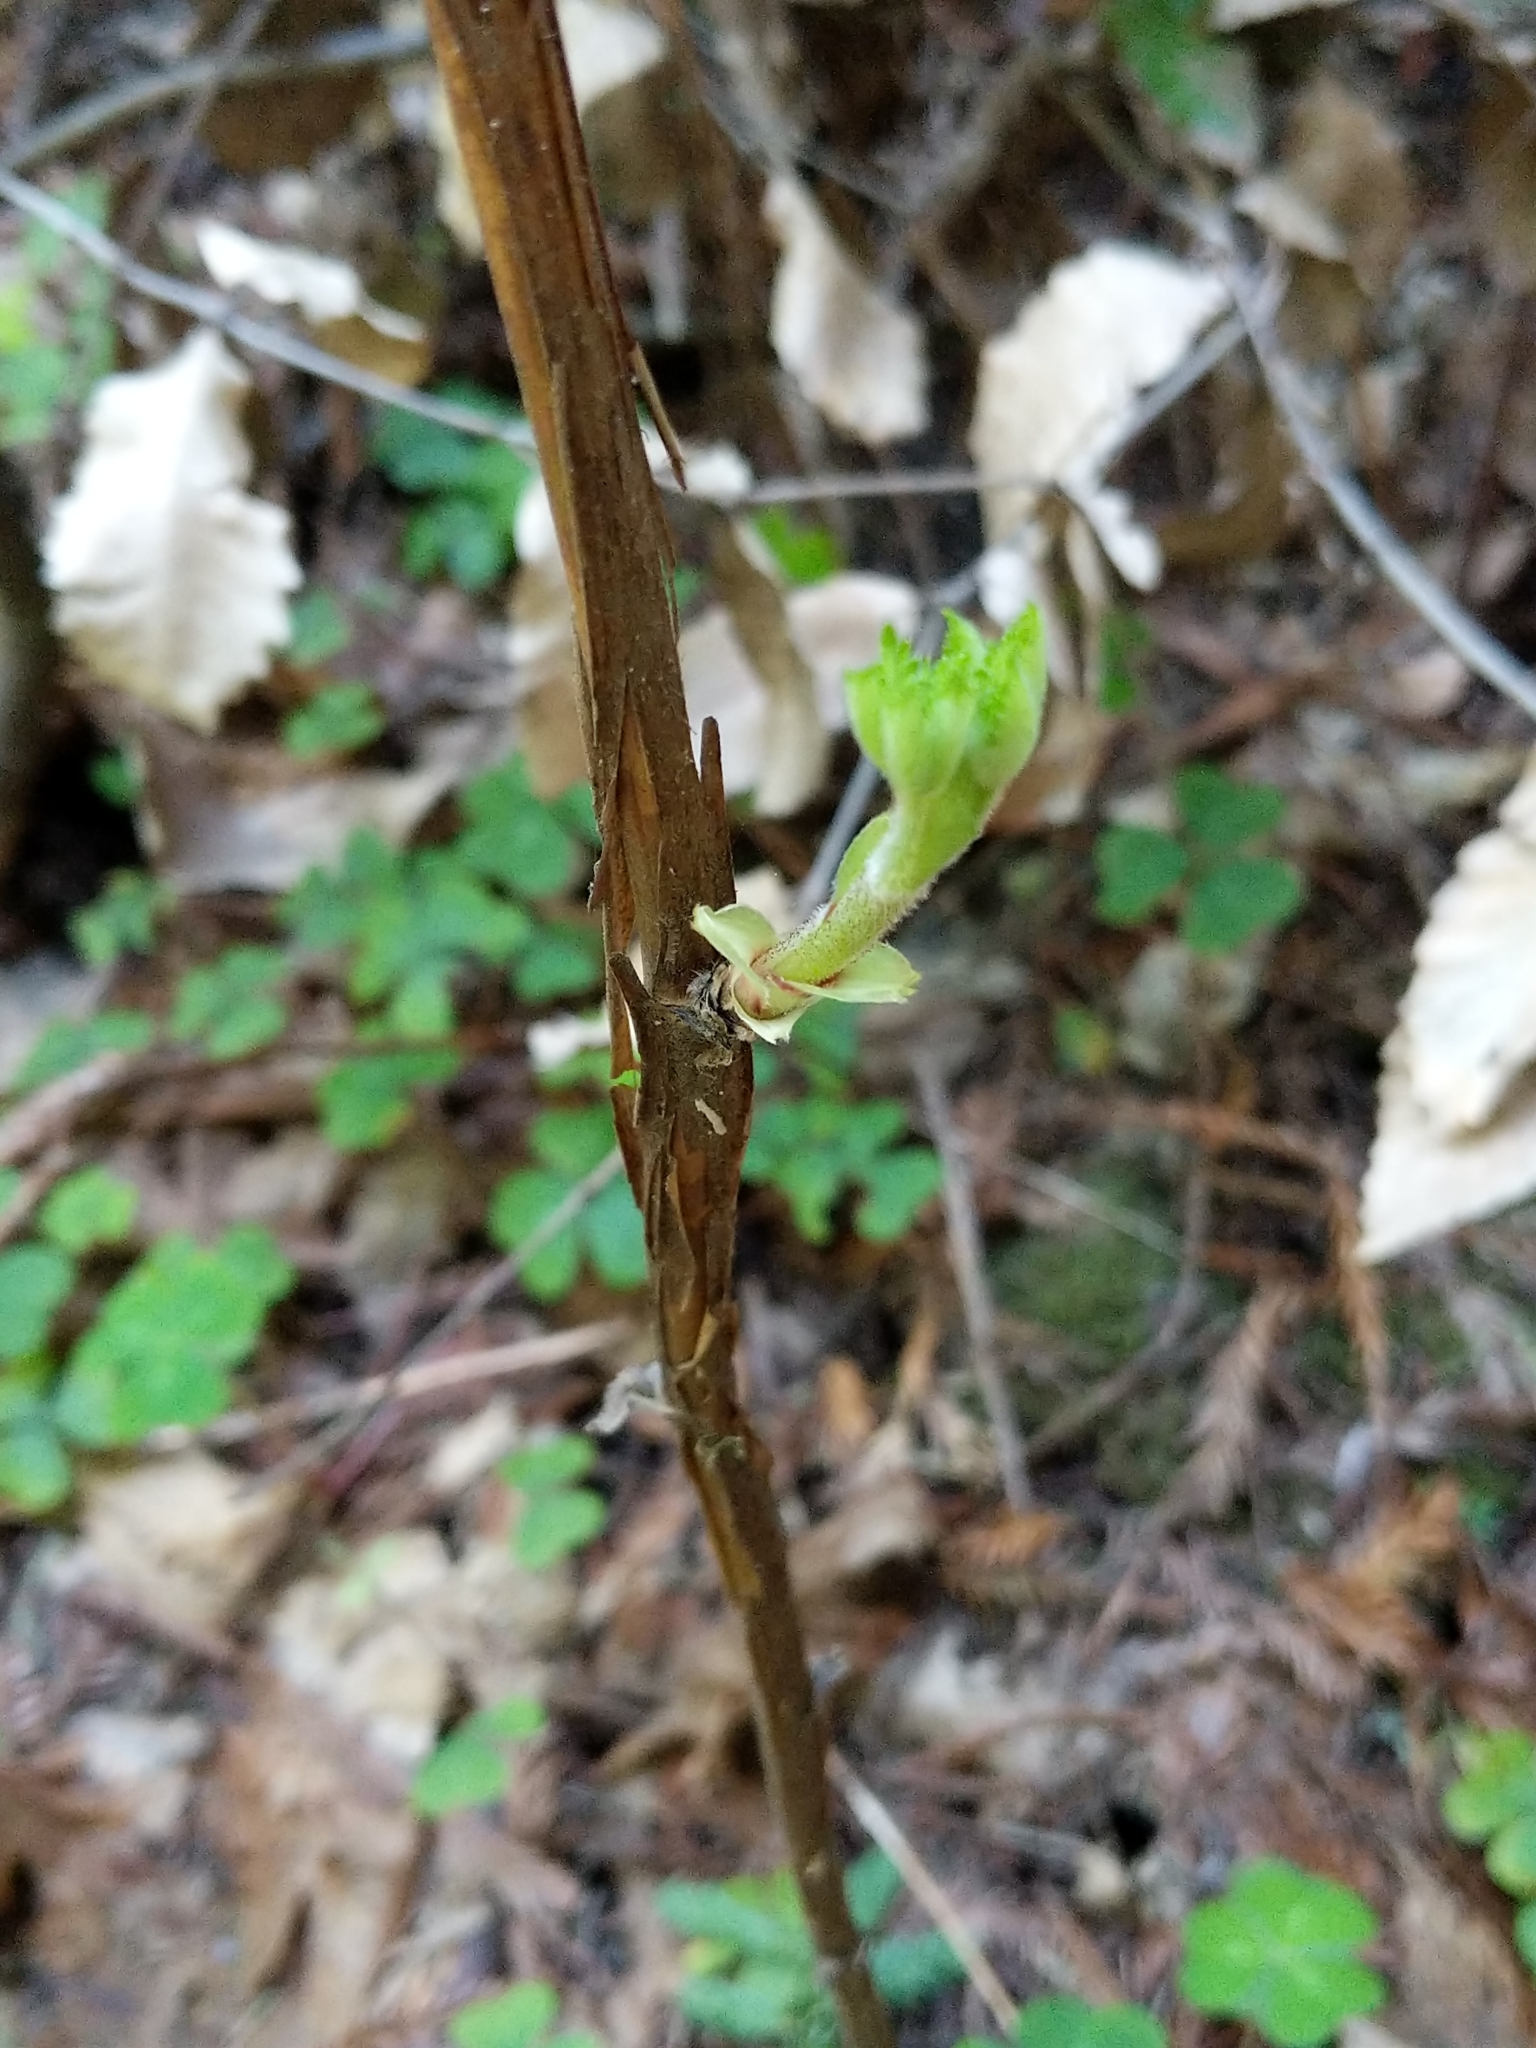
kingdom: Plantae
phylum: Tracheophyta
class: Magnoliopsida
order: Rosales
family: Rosaceae
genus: Rubus
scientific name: Rubus parviflorus
